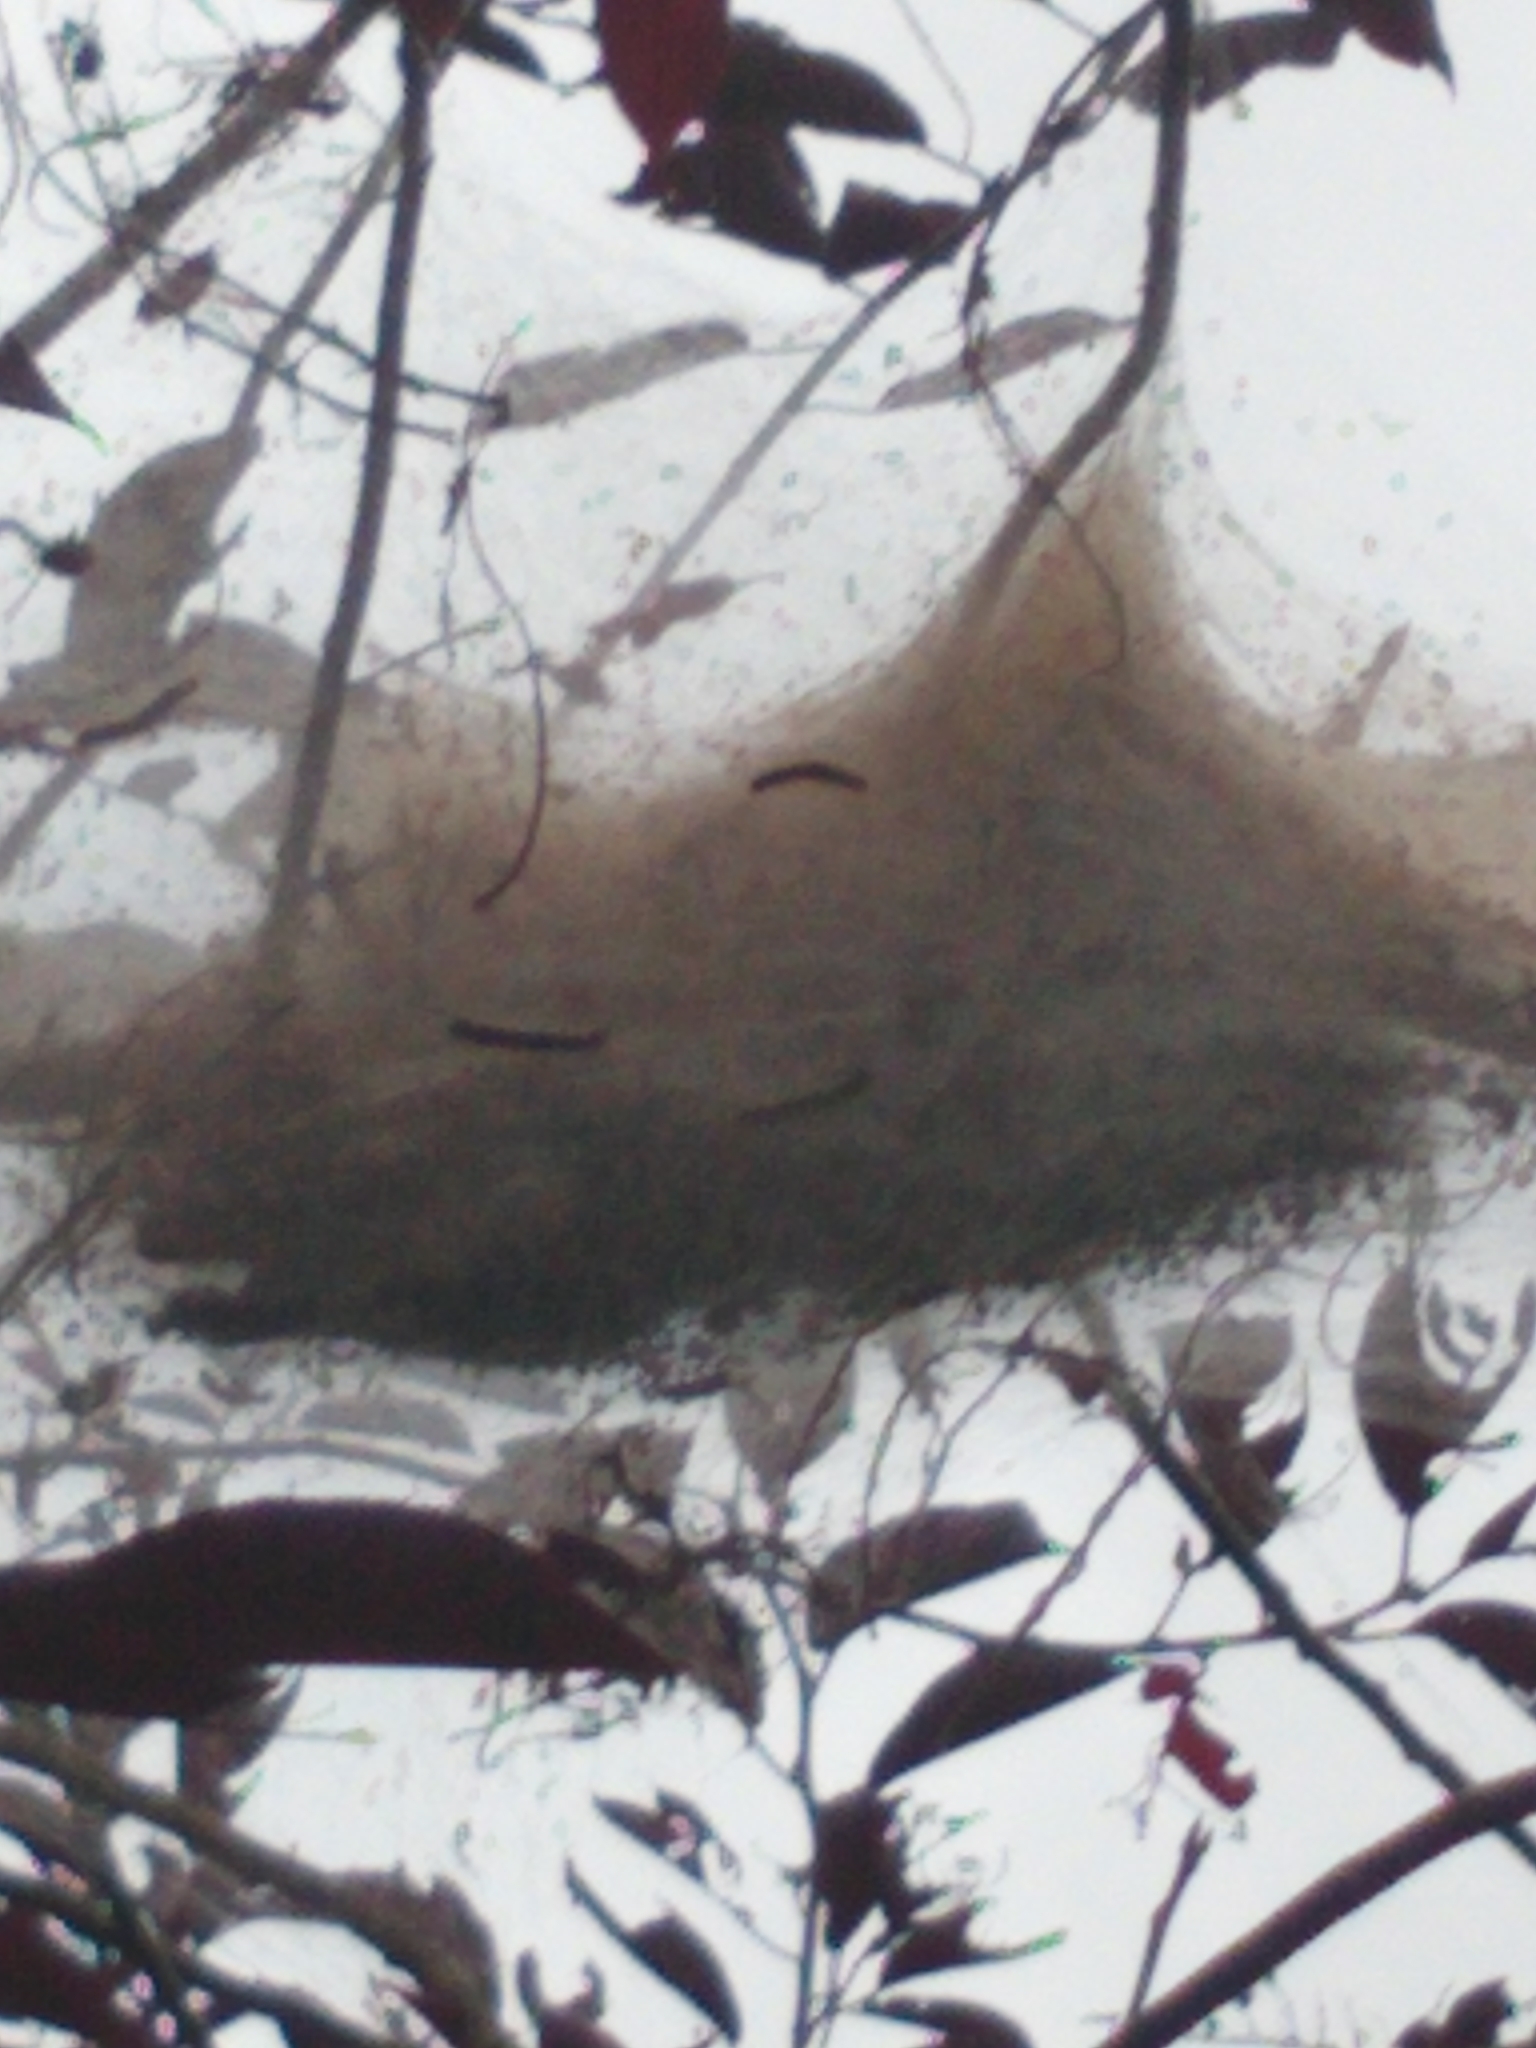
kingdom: Animalia
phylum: Arthropoda
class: Insecta
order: Lepidoptera
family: Erebidae
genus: Hyphantria
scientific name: Hyphantria cunea
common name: American white moth
